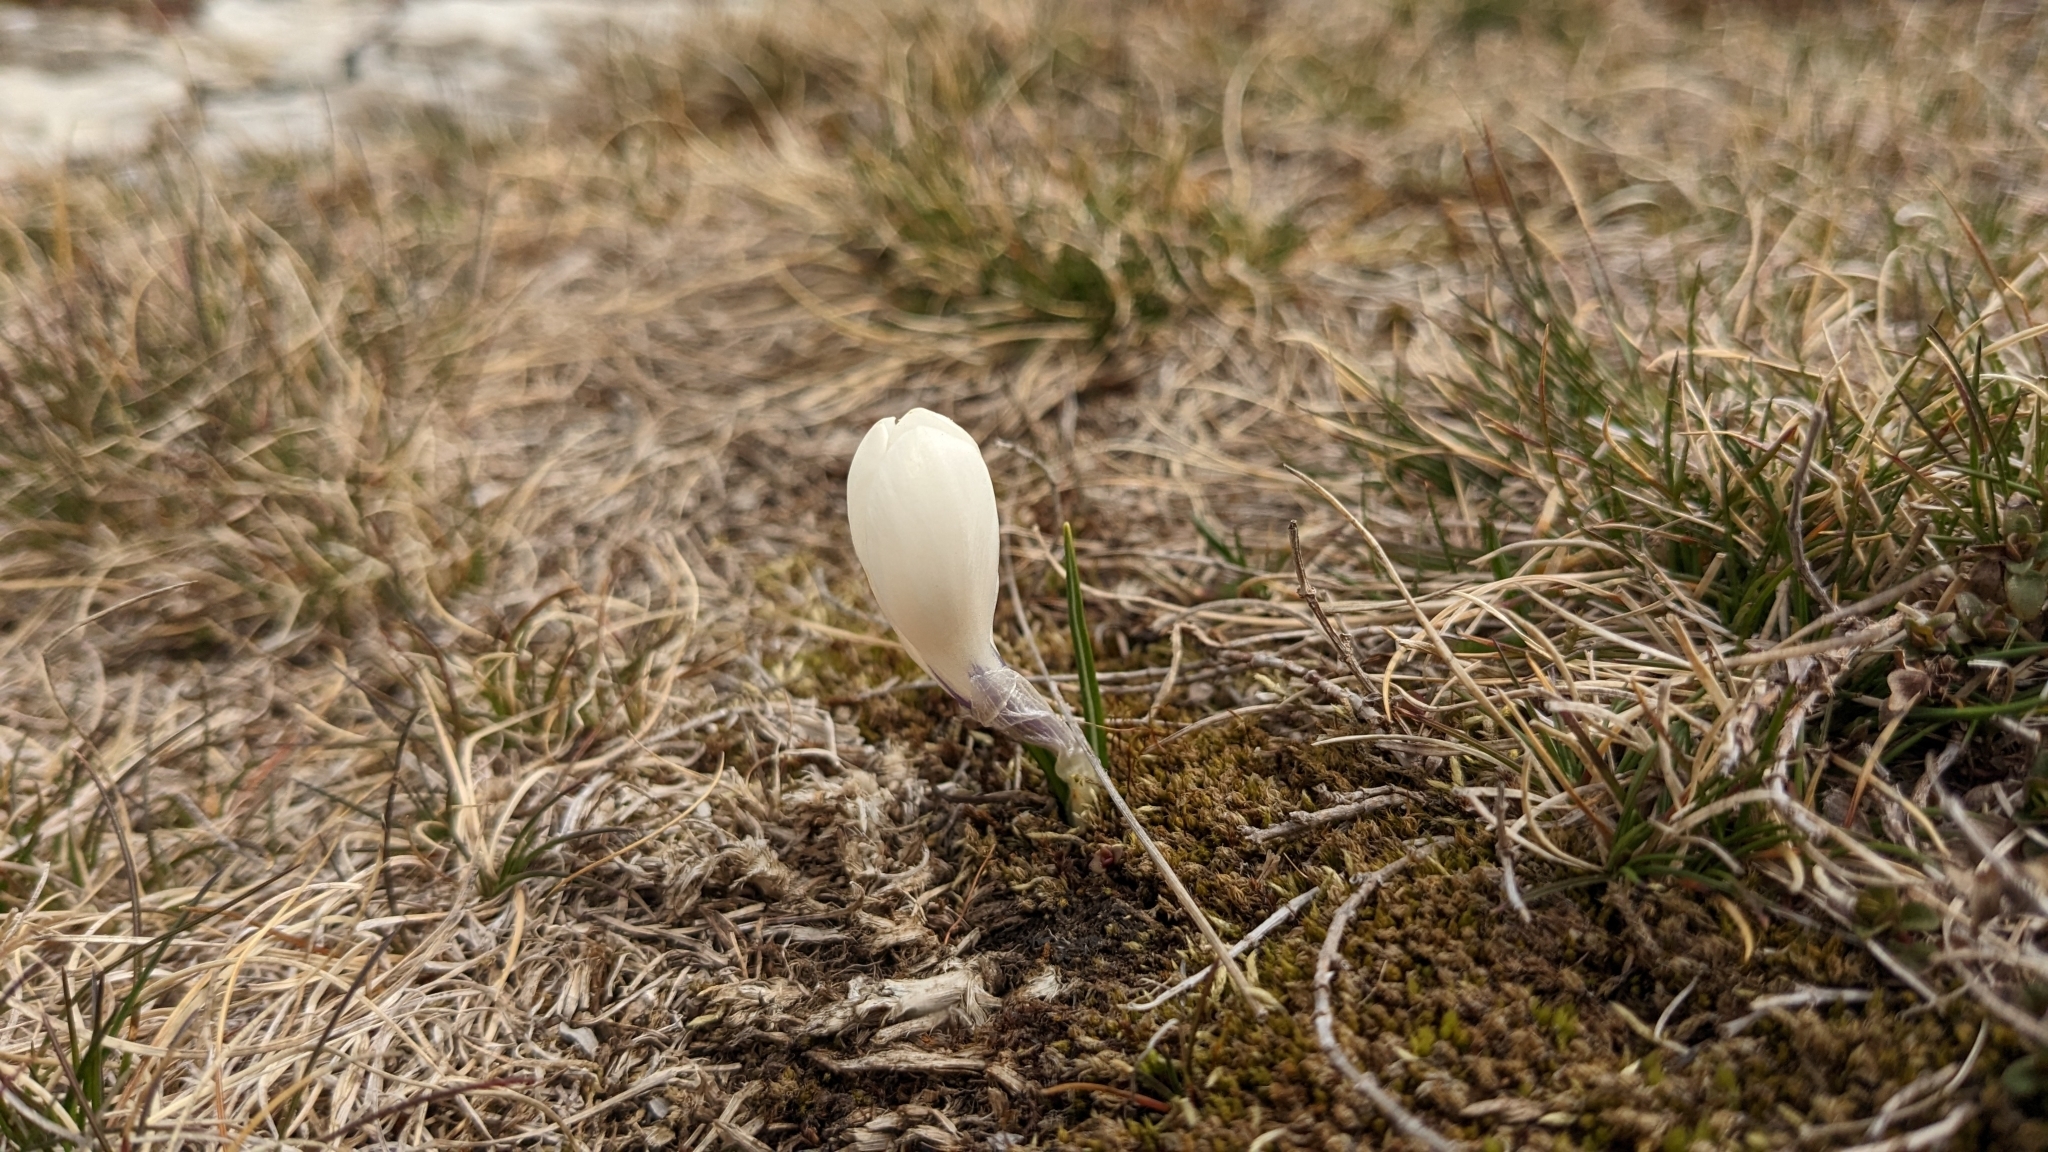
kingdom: Plantae
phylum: Tracheophyta
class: Liliopsida
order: Asparagales
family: Iridaceae
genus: Crocus
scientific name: Crocus vernus
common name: Spring crocus
